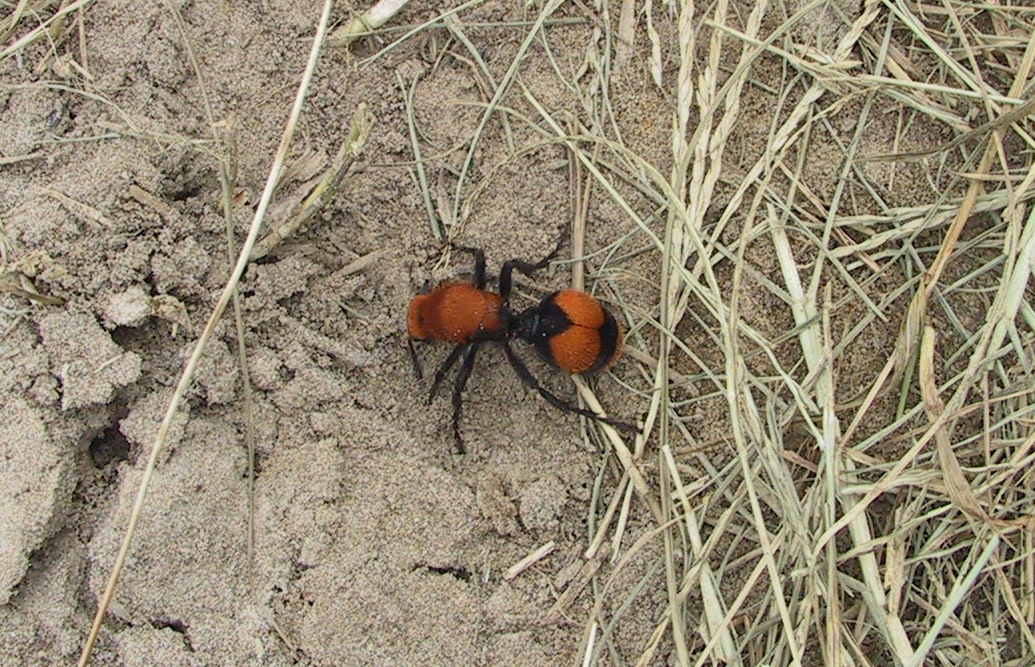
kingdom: Animalia
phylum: Arthropoda
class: Insecta
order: Hymenoptera
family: Mutillidae
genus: Dasymutilla
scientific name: Dasymutilla occidentalis
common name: Common eastern velvet ant
